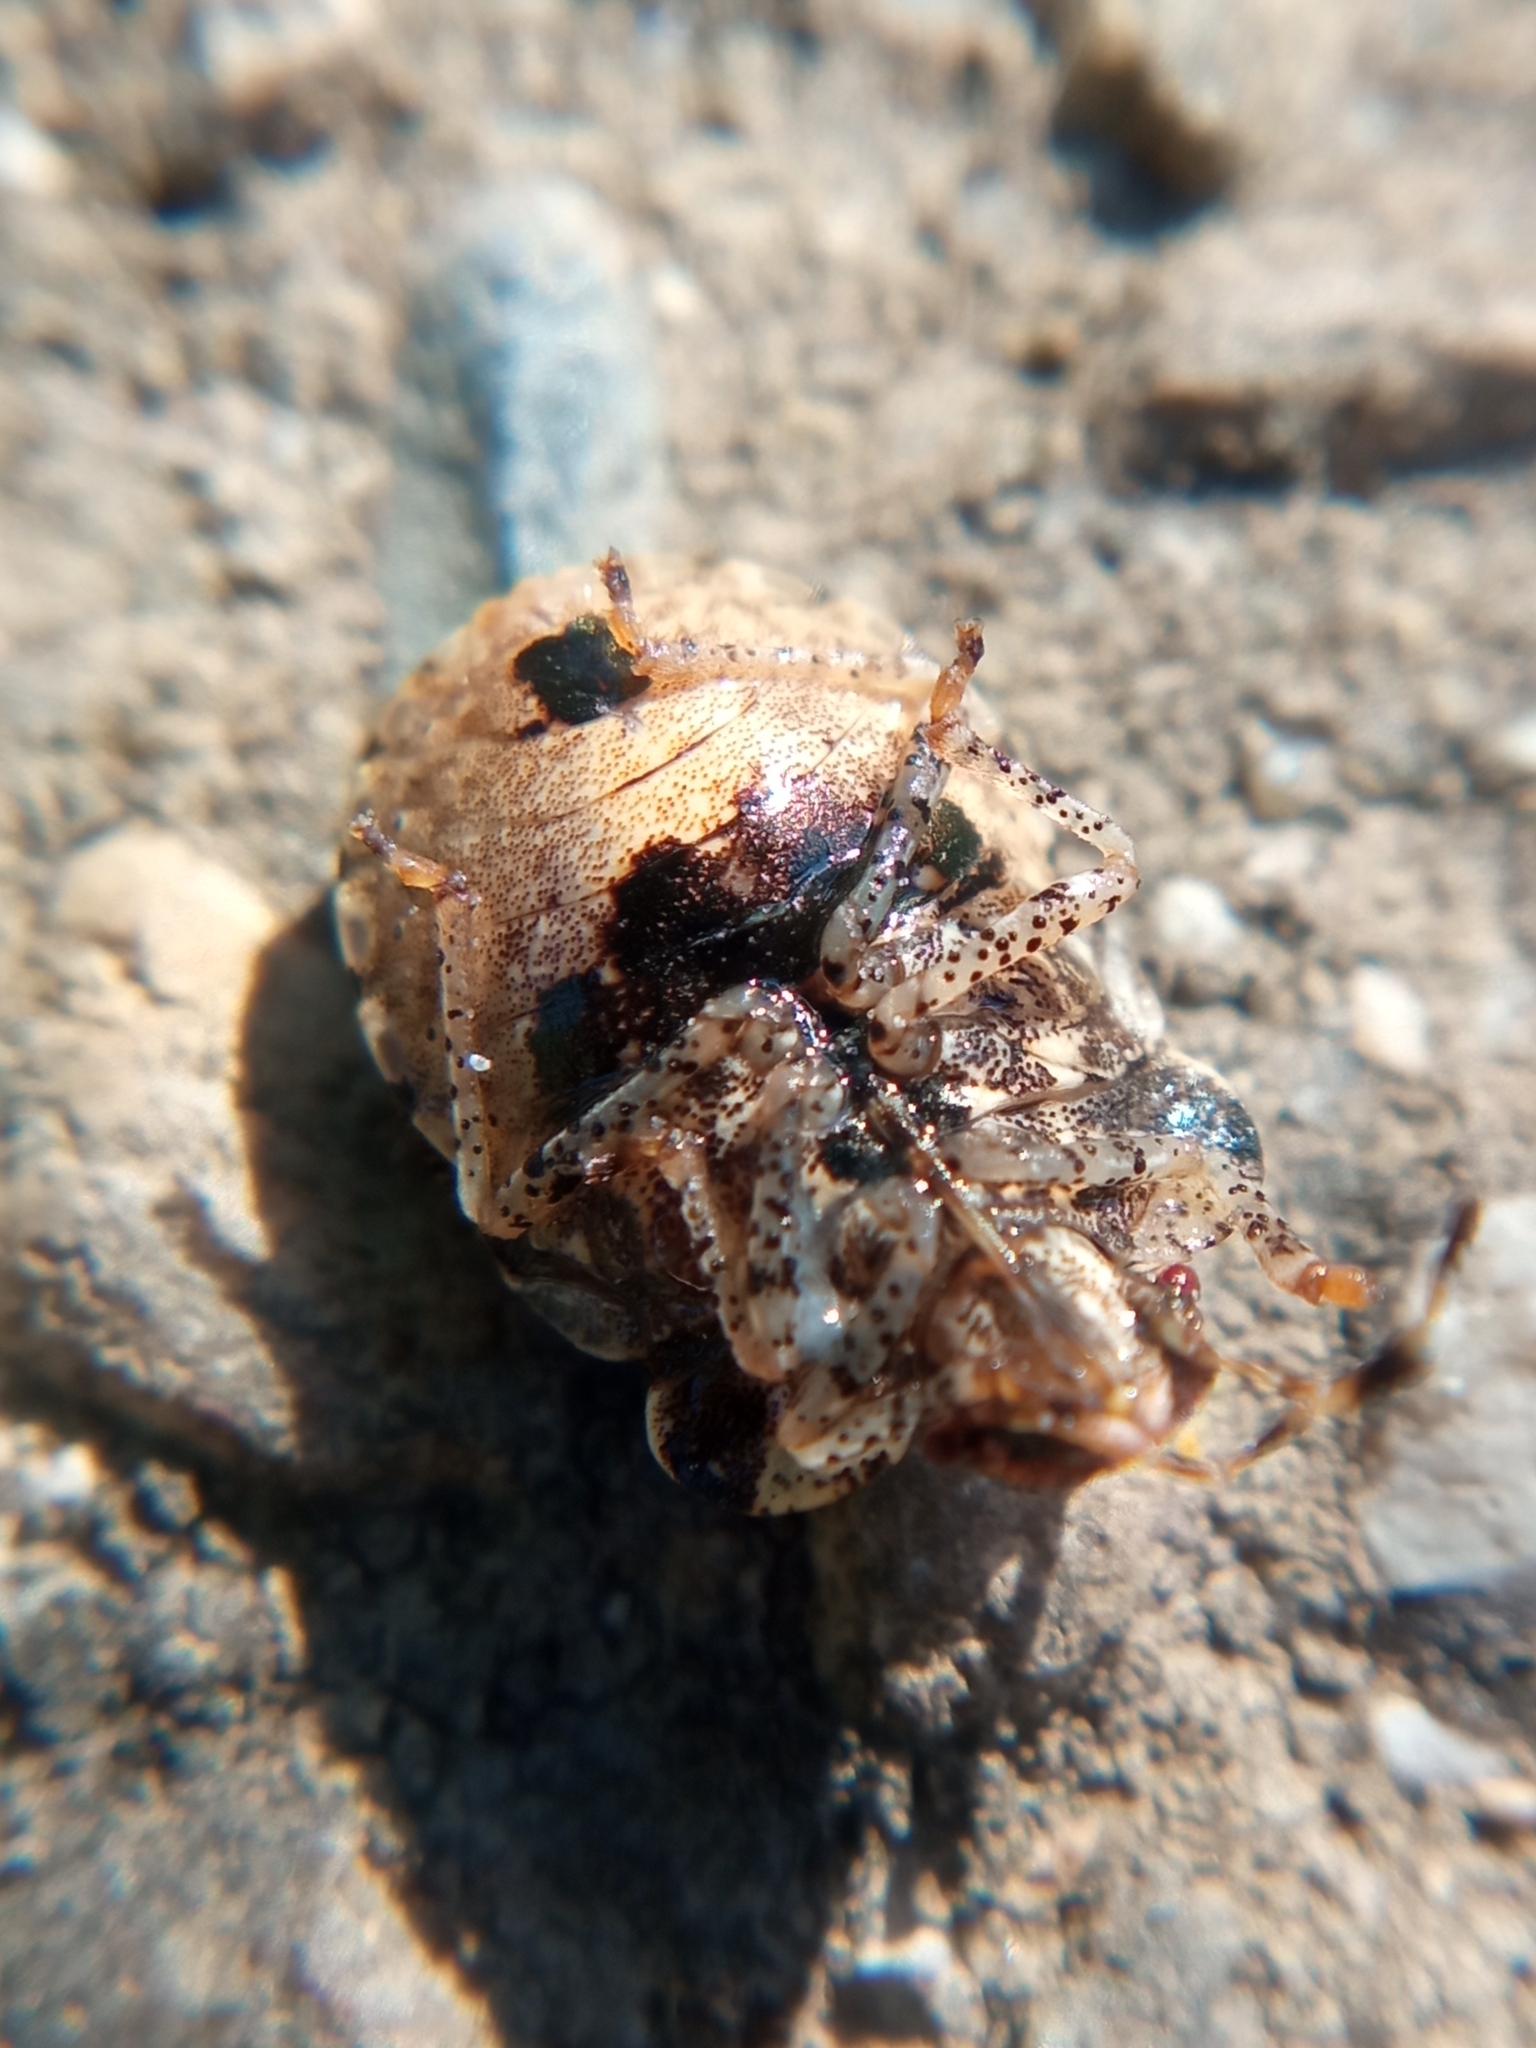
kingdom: Animalia
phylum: Arthropoda
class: Insecta
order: Hemiptera
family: Pentatomidae
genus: Dyroderes
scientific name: Dyroderes umbraculatus
